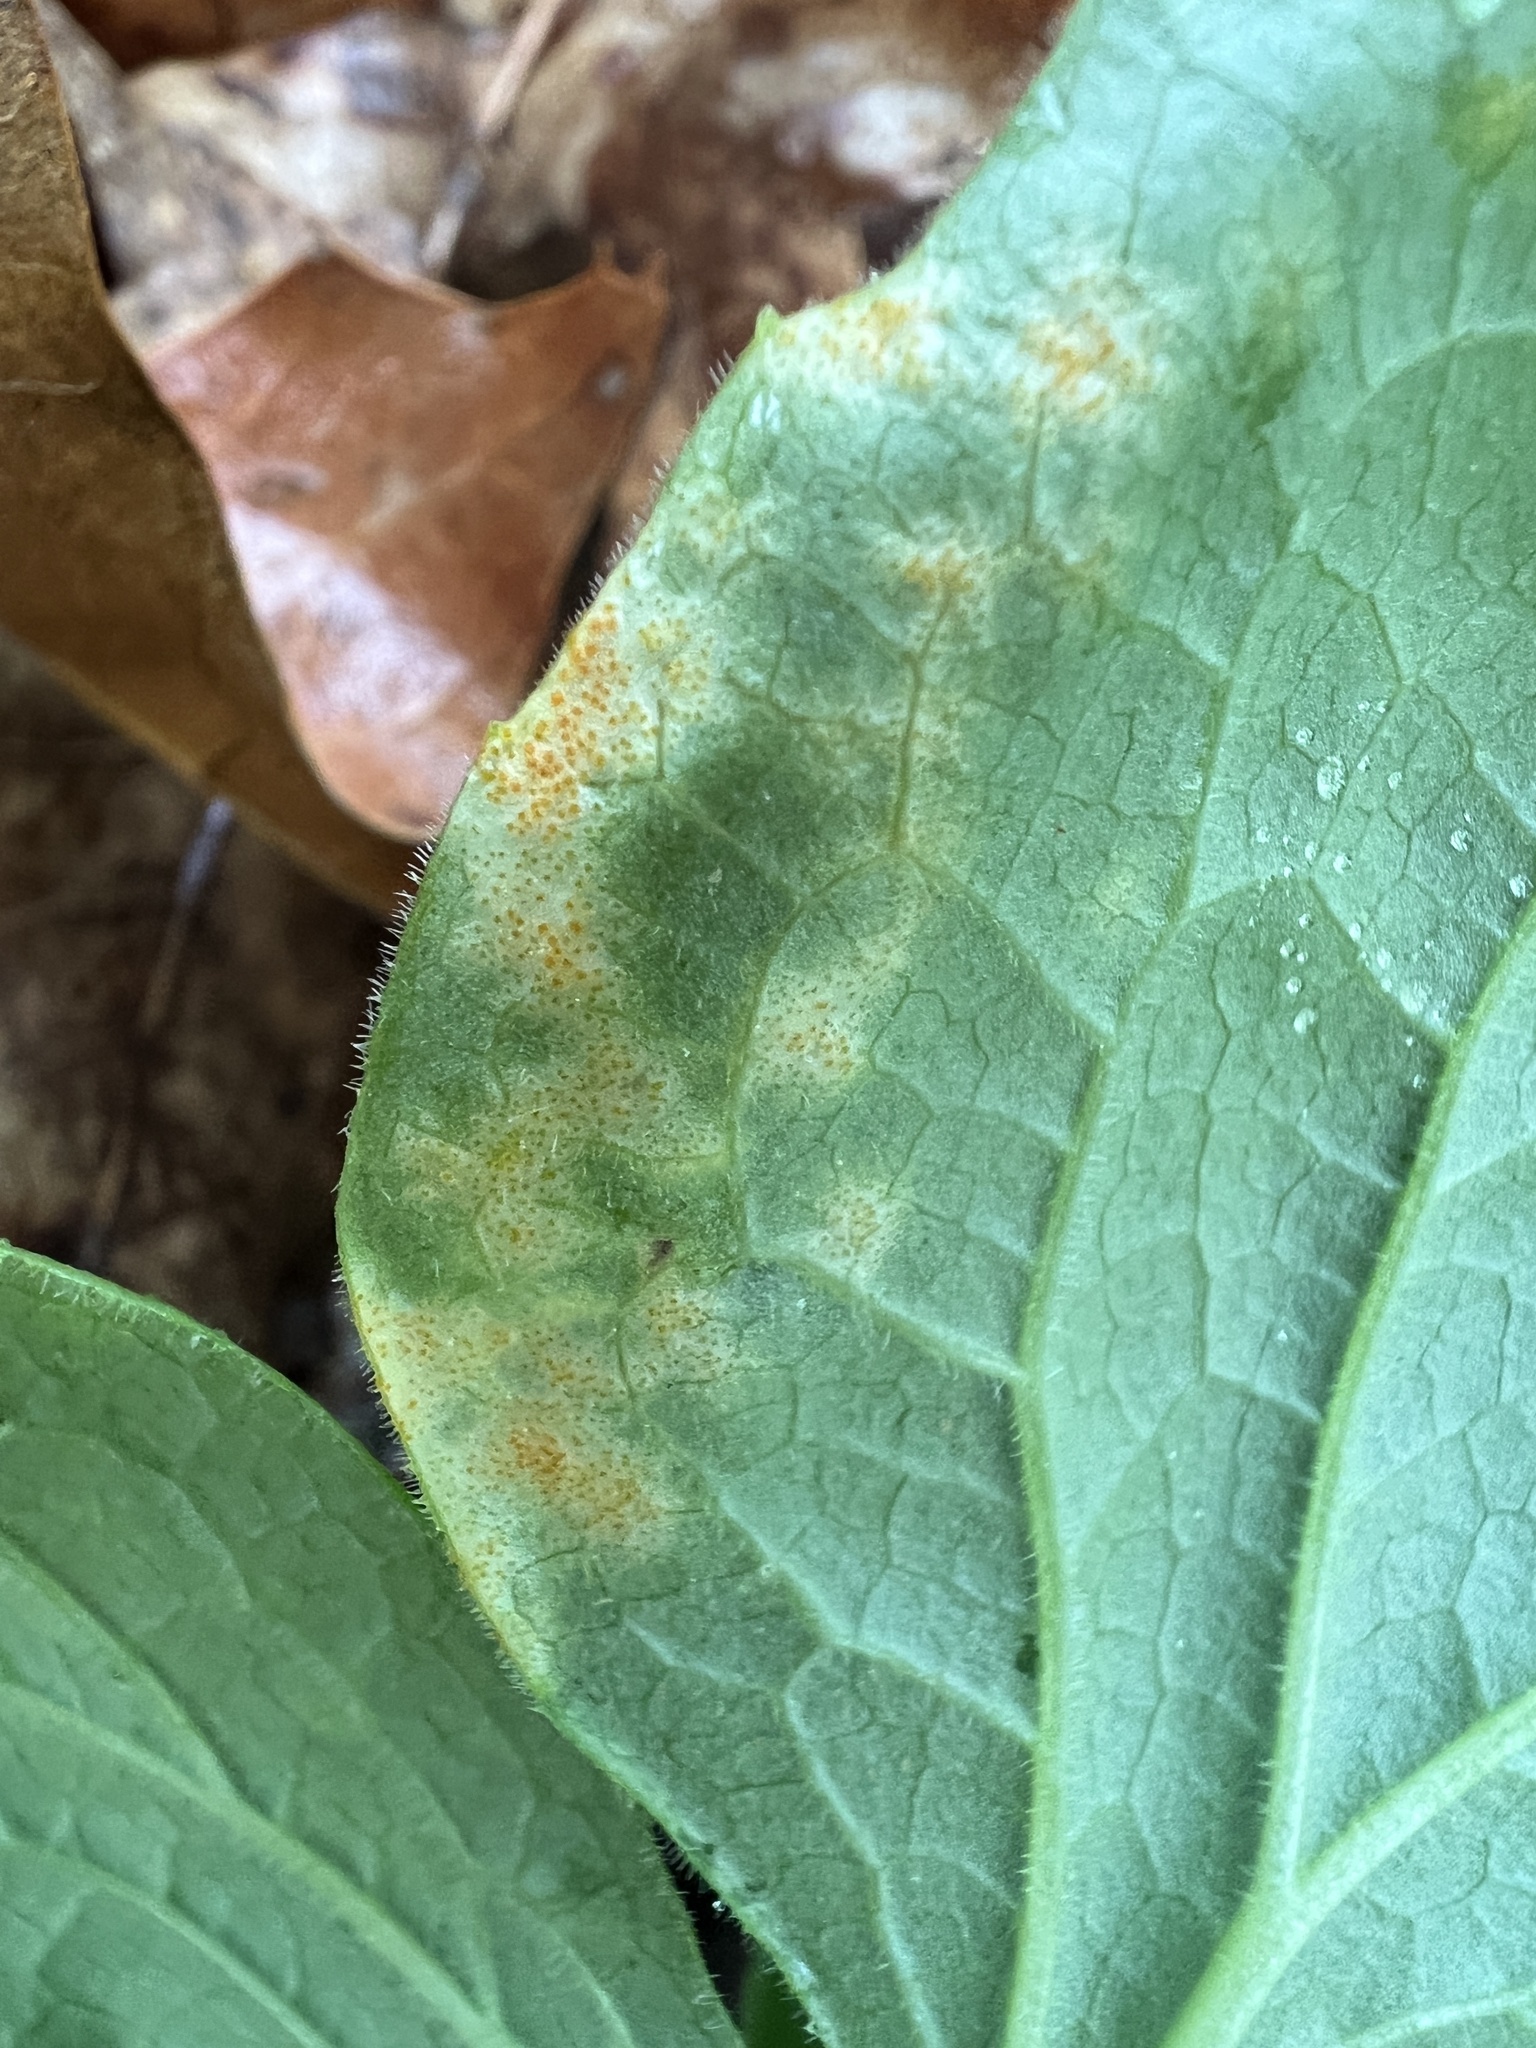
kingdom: Fungi
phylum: Basidiomycota
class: Pucciniomycetes
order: Pucciniales
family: Pucciniaceae
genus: Puccinia
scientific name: Puccinia podophylli
